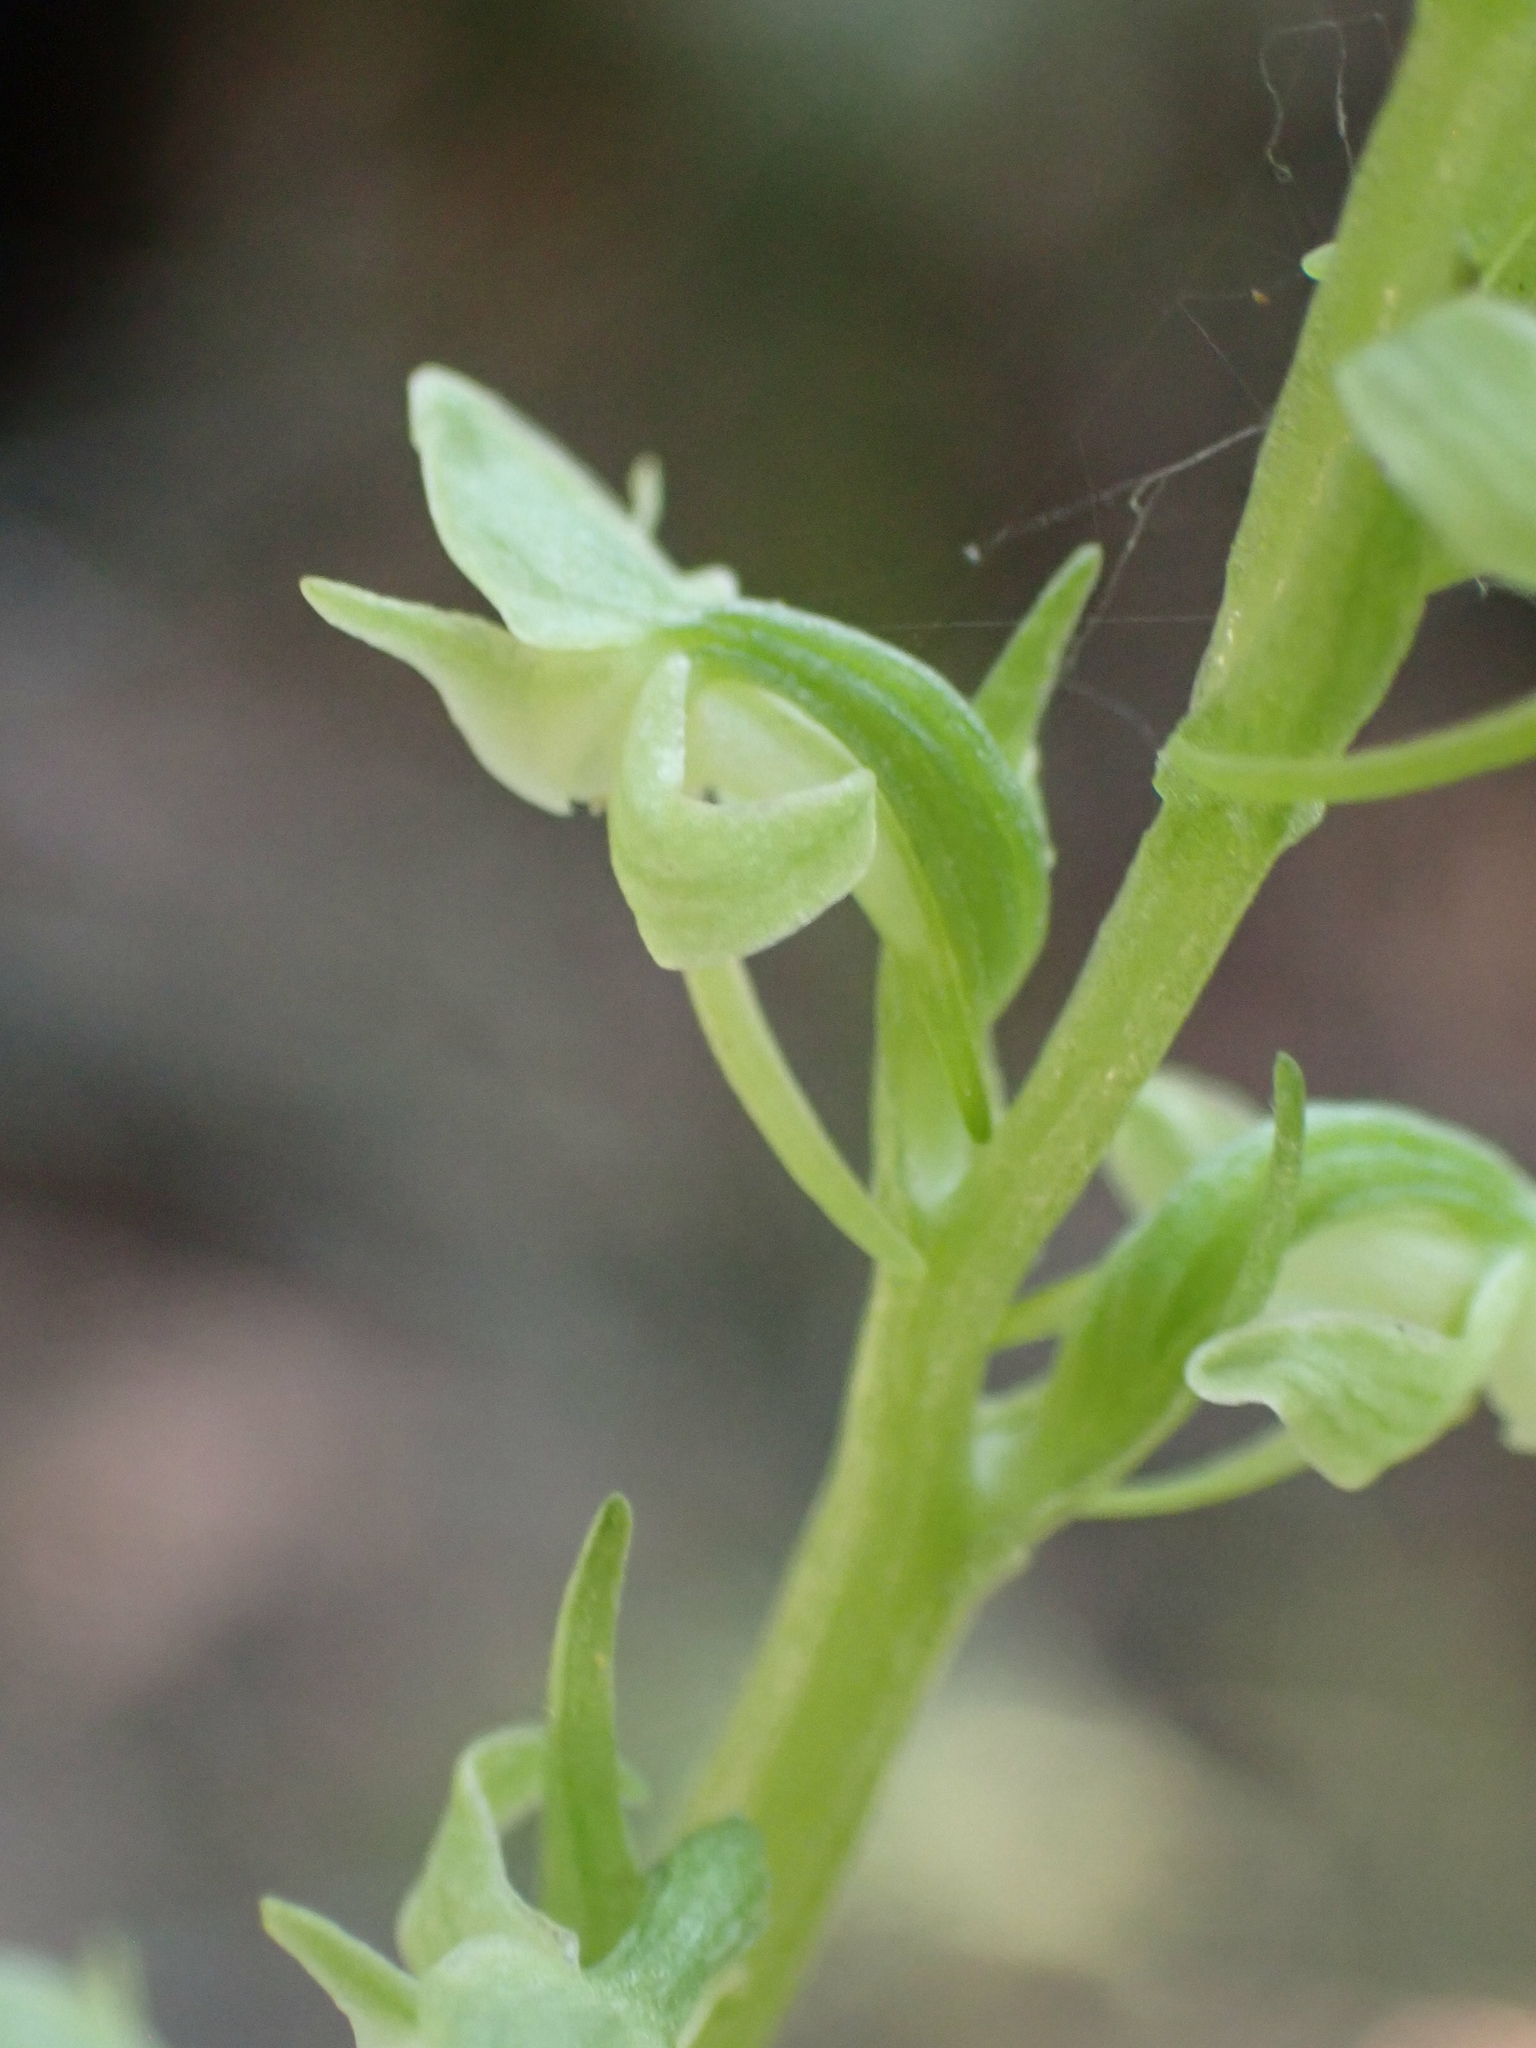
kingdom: Plantae
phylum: Tracheophyta
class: Liliopsida
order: Asparagales
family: Orchidaceae
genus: Platanthera
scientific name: Platanthera obtusata
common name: Blunt bog orchid
